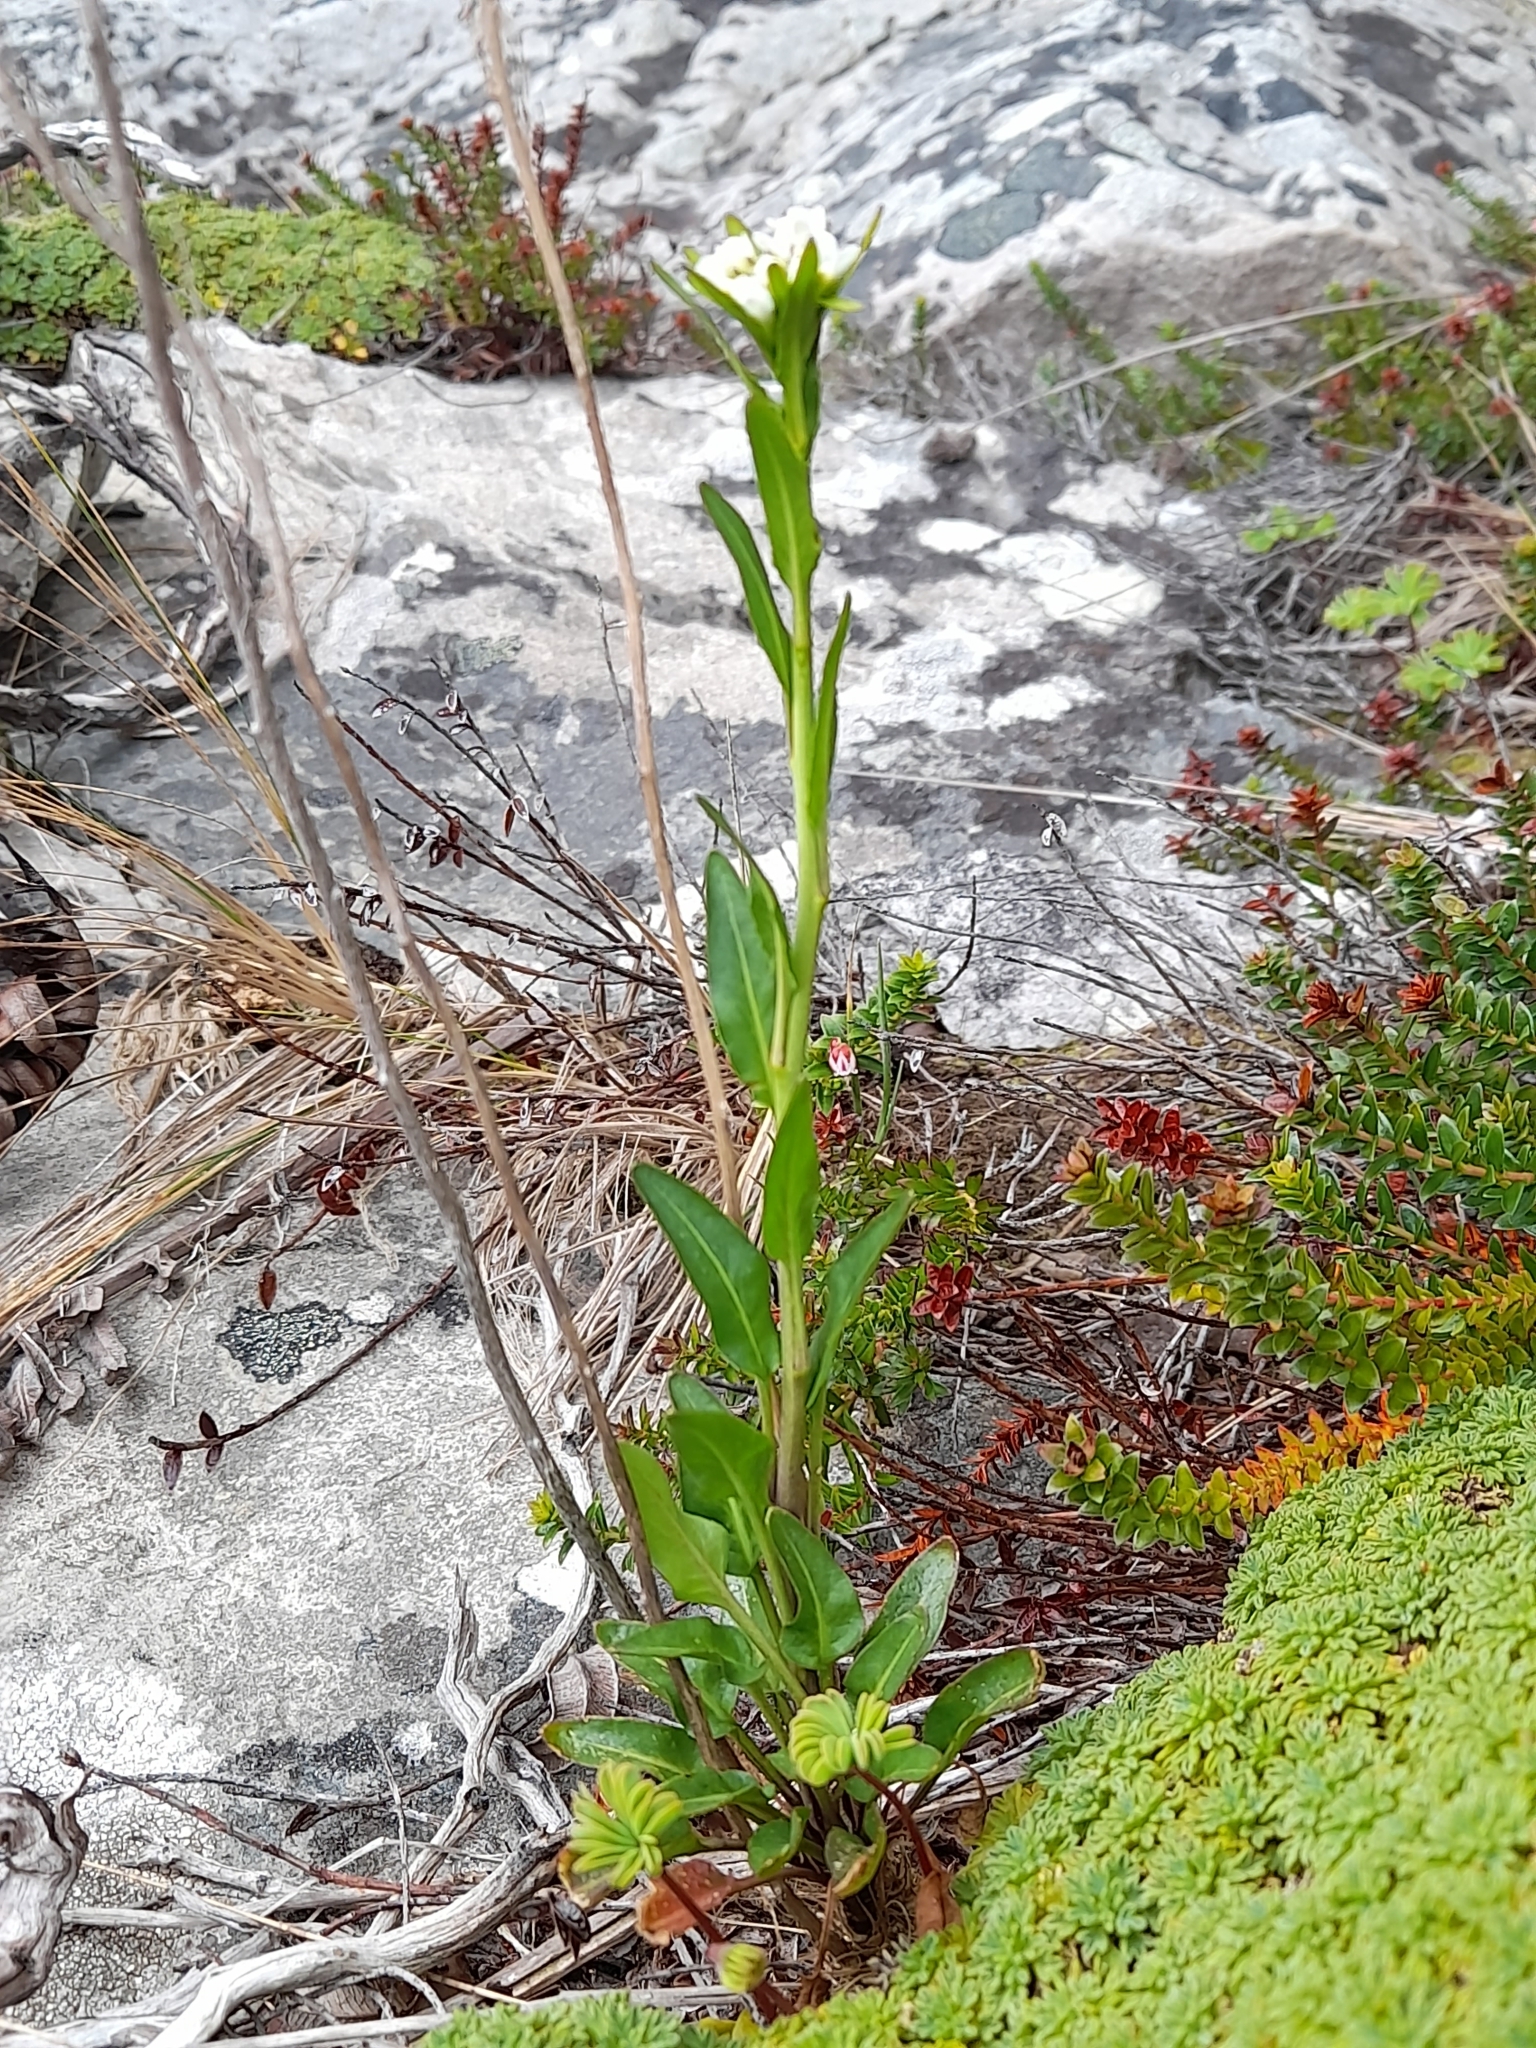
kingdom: Plantae
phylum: Tracheophyta
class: Magnoliopsida
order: Brassicales
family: Brassicaceae
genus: Phlebolobium
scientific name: Phlebolobium maclovianum
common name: Falkland rock-cress
